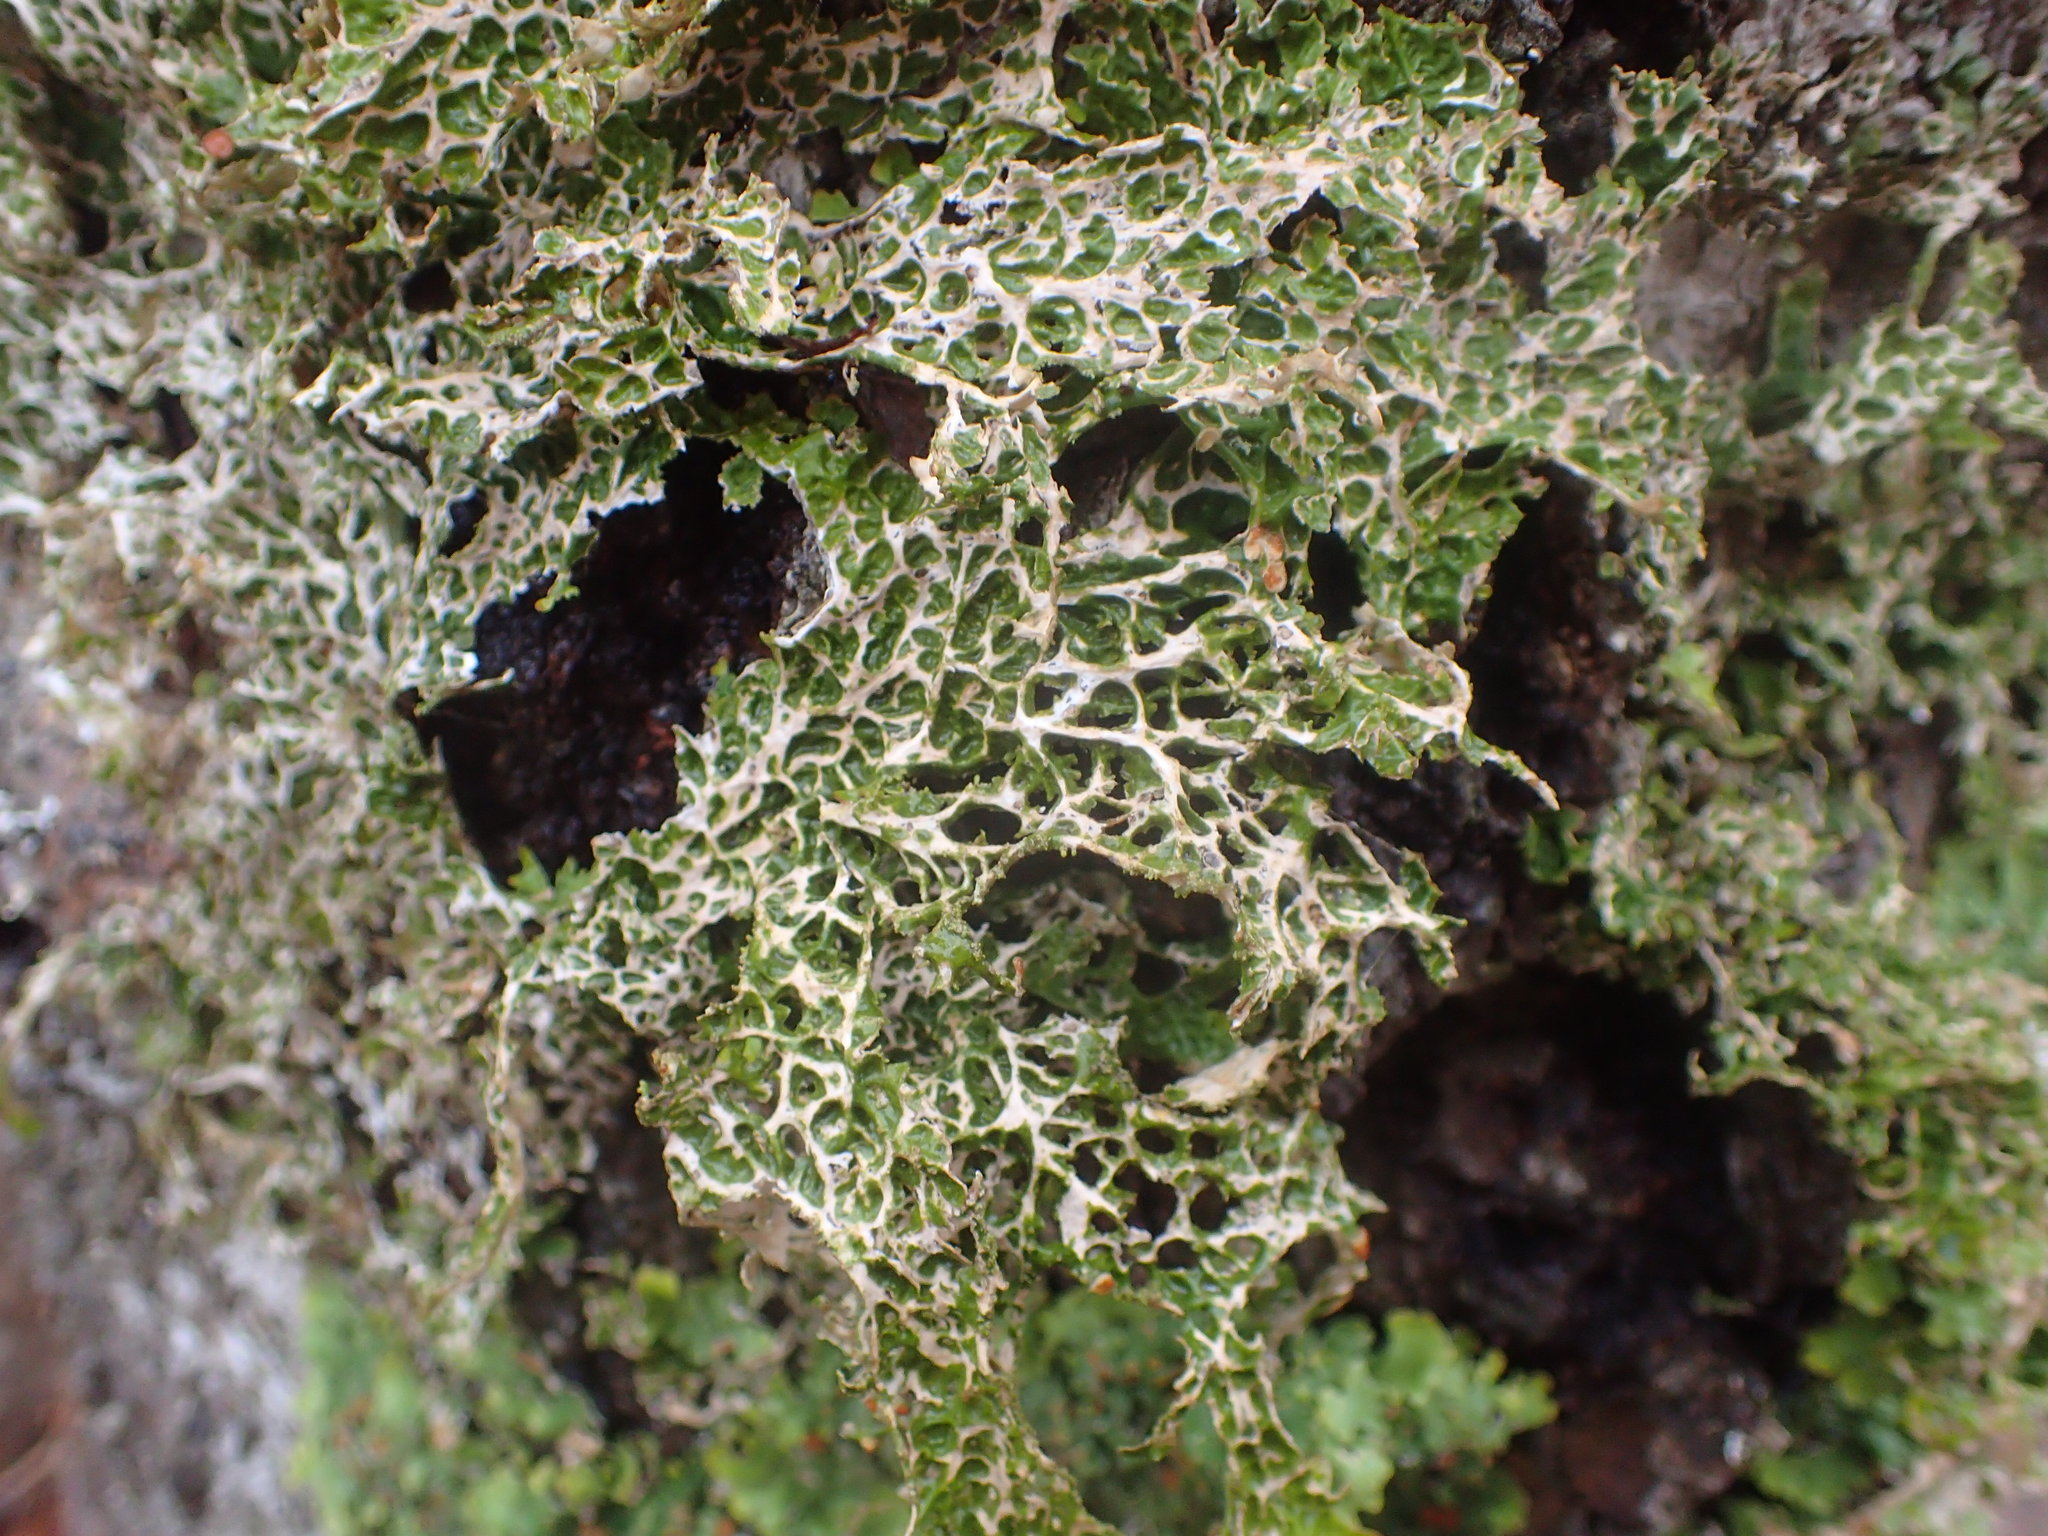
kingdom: Fungi
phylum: Ascomycota
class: Lecanoromycetes
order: Peltigerales
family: Lobariaceae
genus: Lobaria
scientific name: Lobaria pulmonaria
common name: Lungwort
